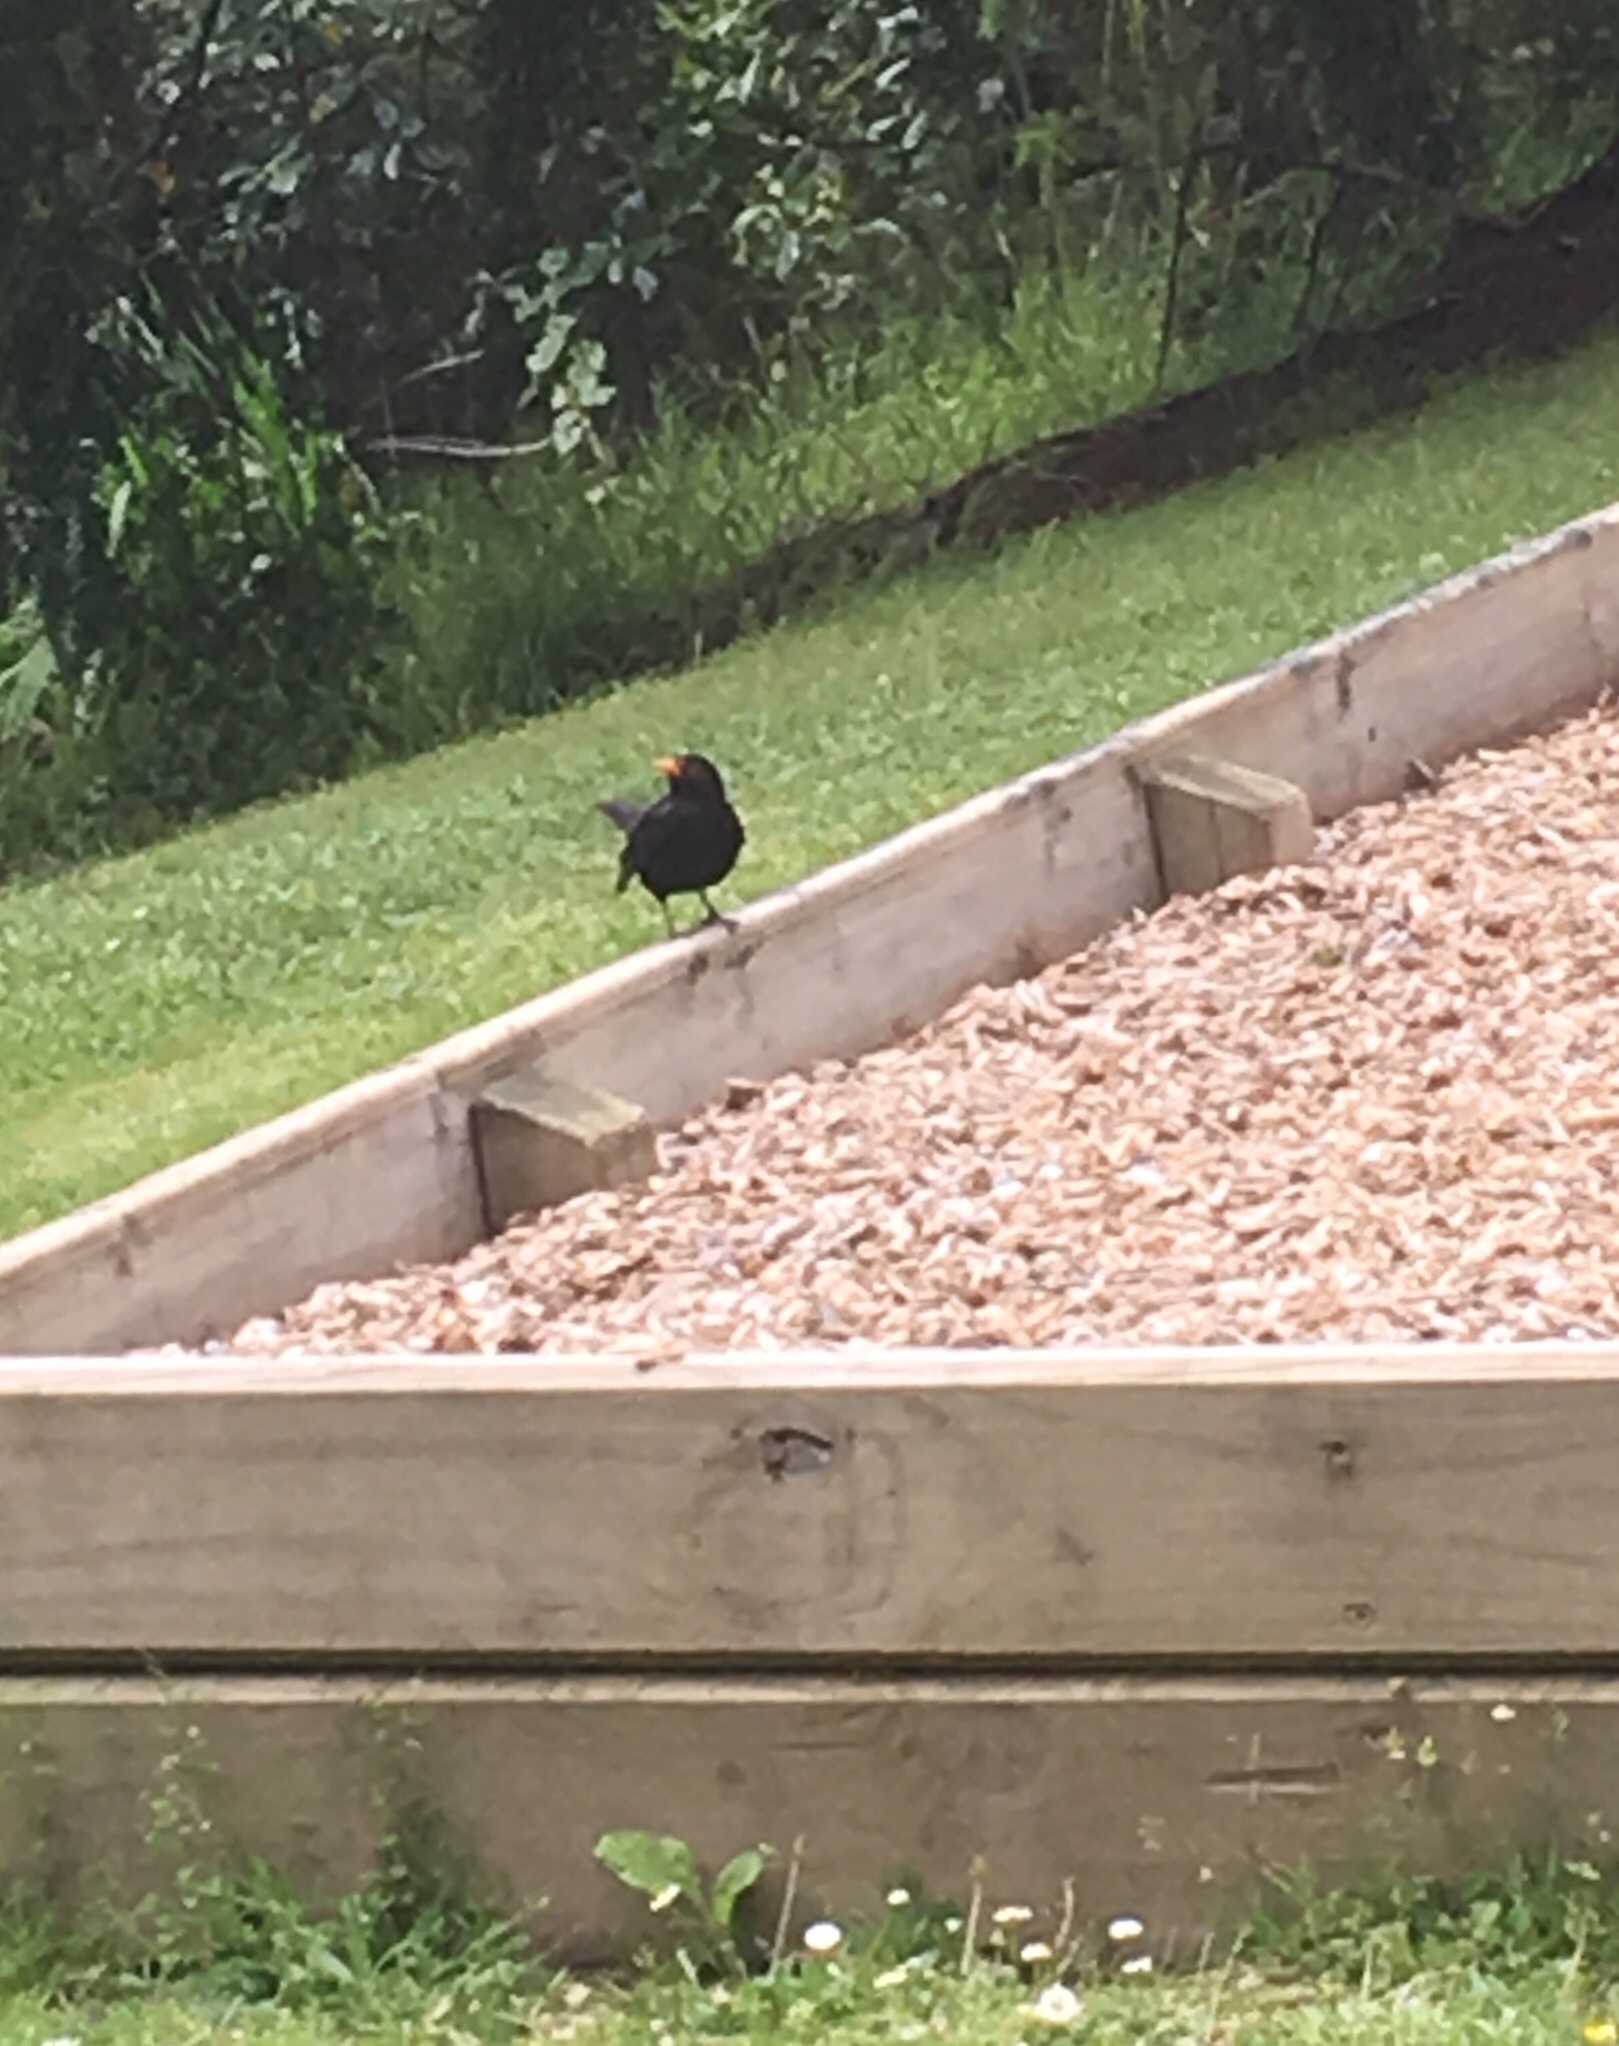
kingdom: Animalia
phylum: Chordata
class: Aves
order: Passeriformes
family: Turdidae
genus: Turdus
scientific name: Turdus merula
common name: Common blackbird
